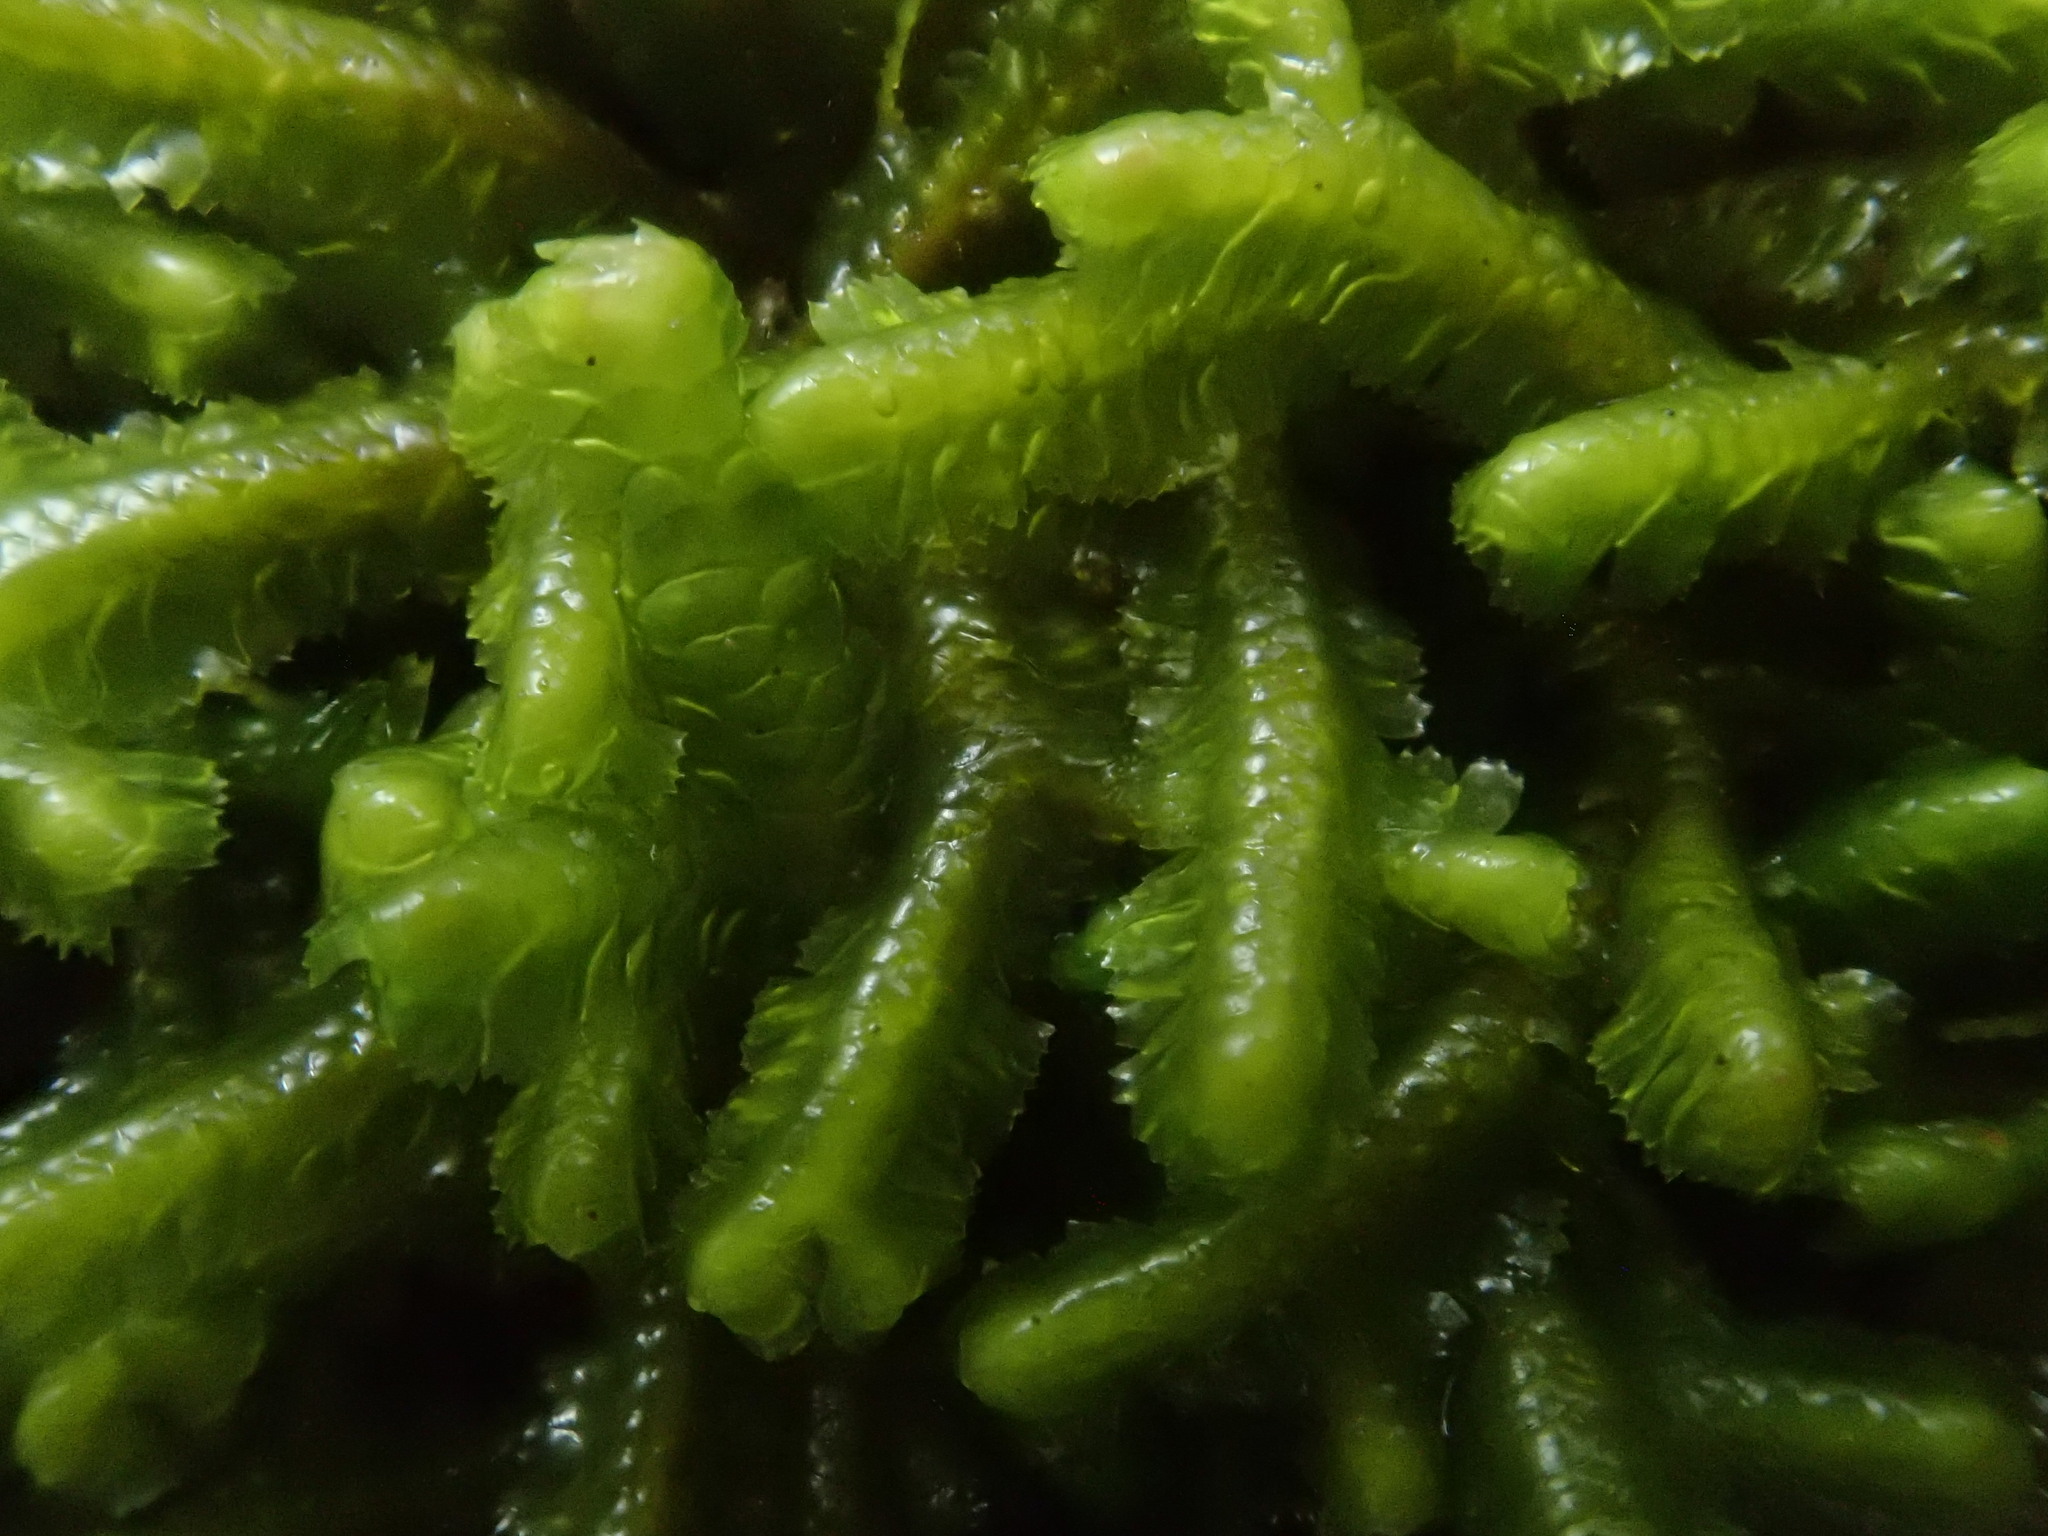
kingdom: Plantae
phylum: Marchantiophyta
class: Jungermanniopsida
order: Jungermanniales
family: Lepidoziaceae
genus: Bazzania
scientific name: Bazzania trilobata
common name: Three-lobed whipwort
